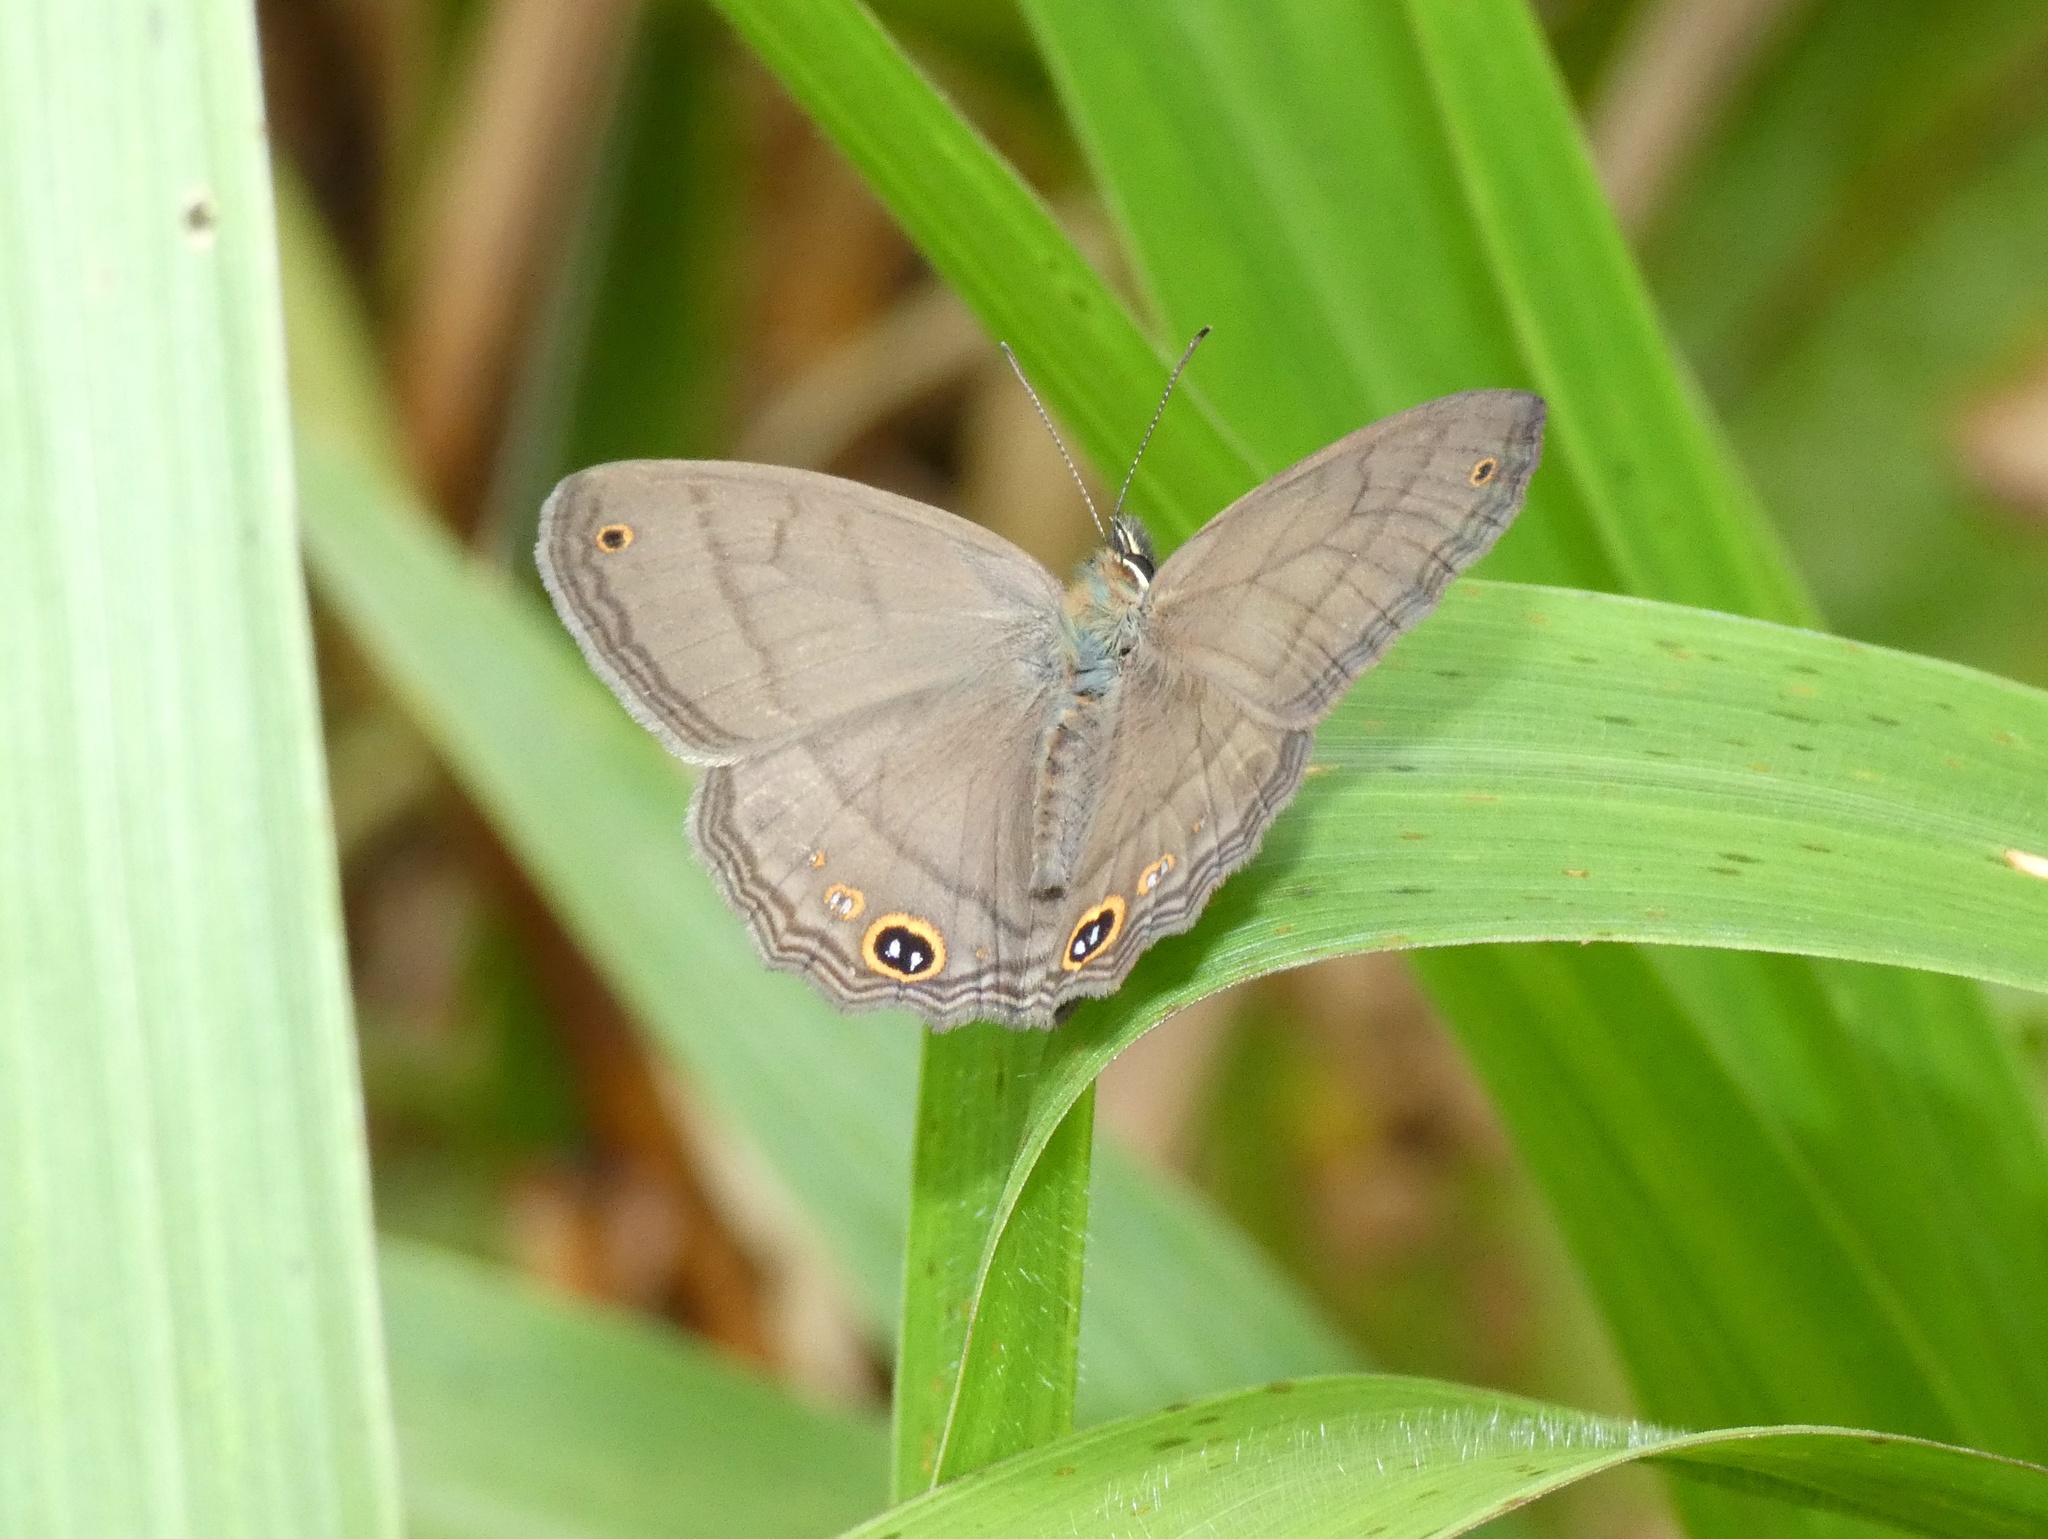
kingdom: Animalia
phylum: Arthropoda
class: Insecta
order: Lepidoptera
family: Nymphalidae
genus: Euptychia
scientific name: Euptychia Cissia pompilia
